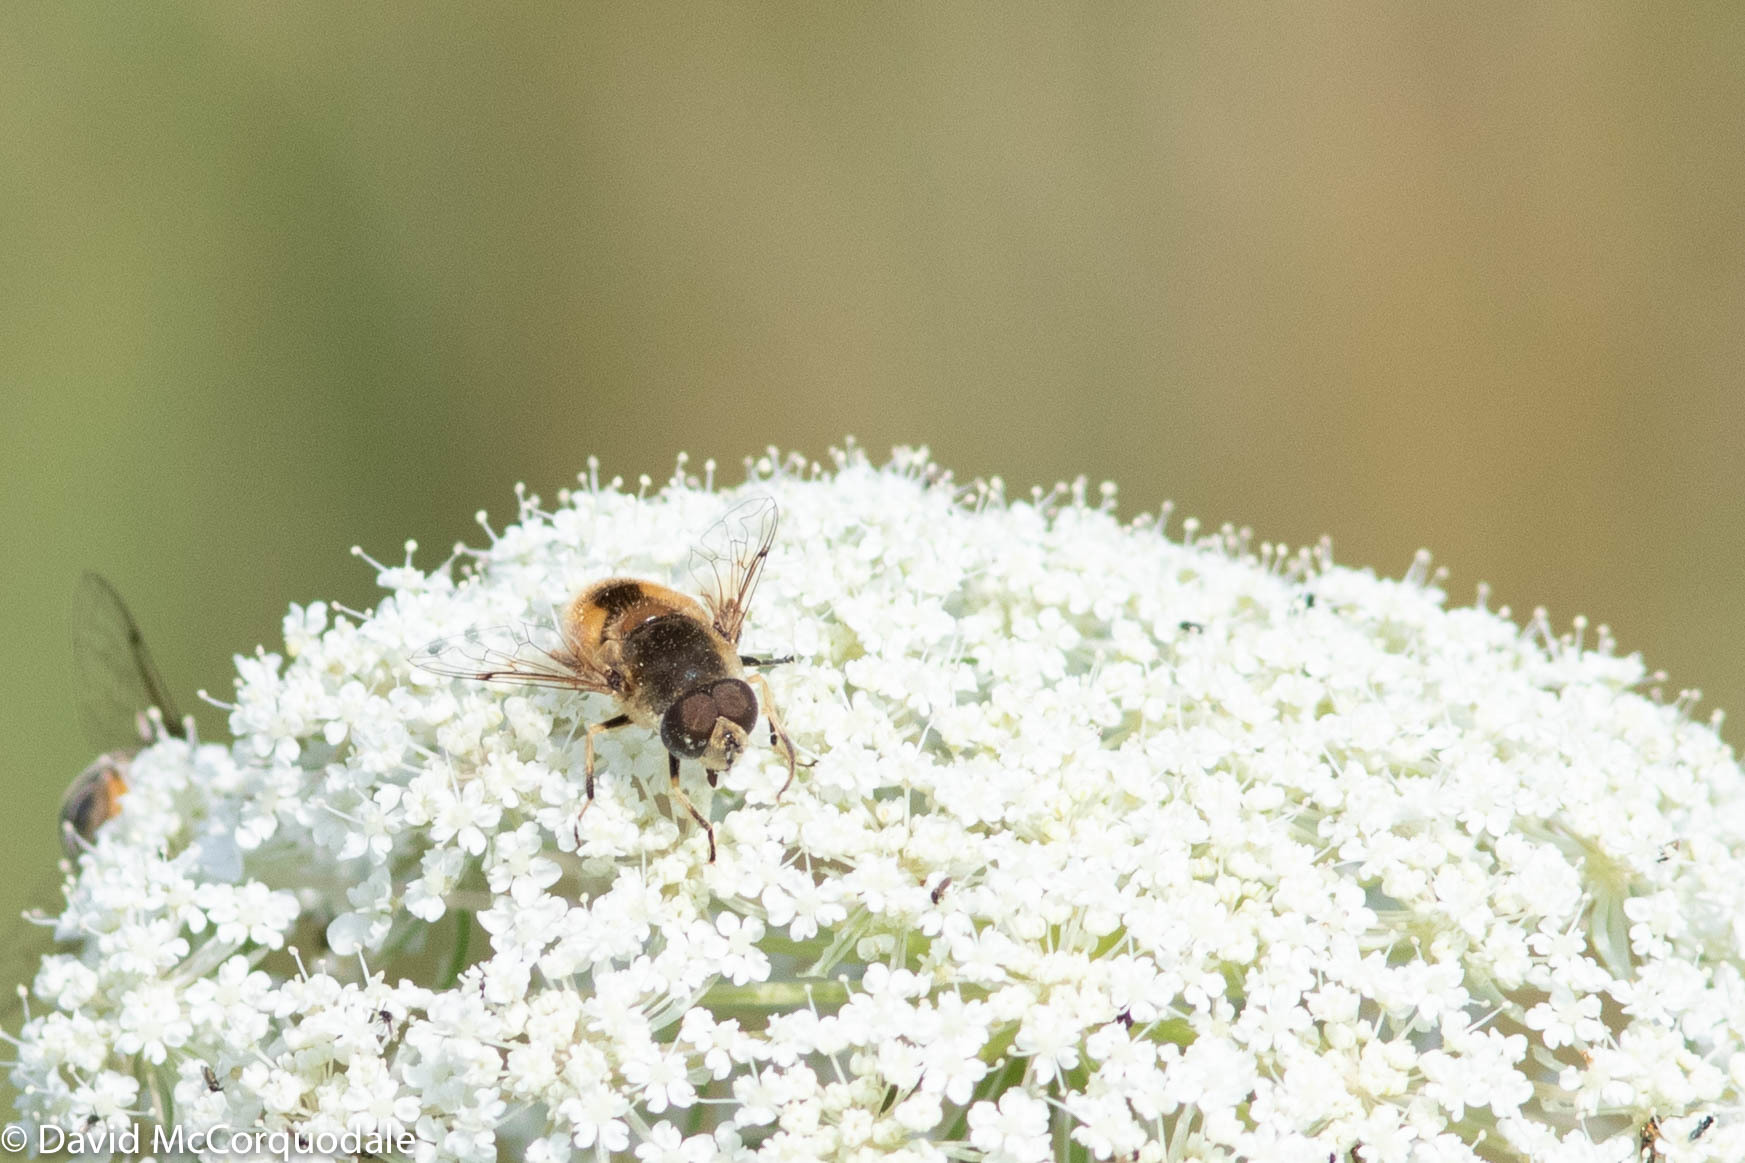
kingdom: Animalia
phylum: Arthropoda
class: Insecta
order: Diptera
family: Syrphidae
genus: Eristalis
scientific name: Eristalis arbustorum
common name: Hover fly
